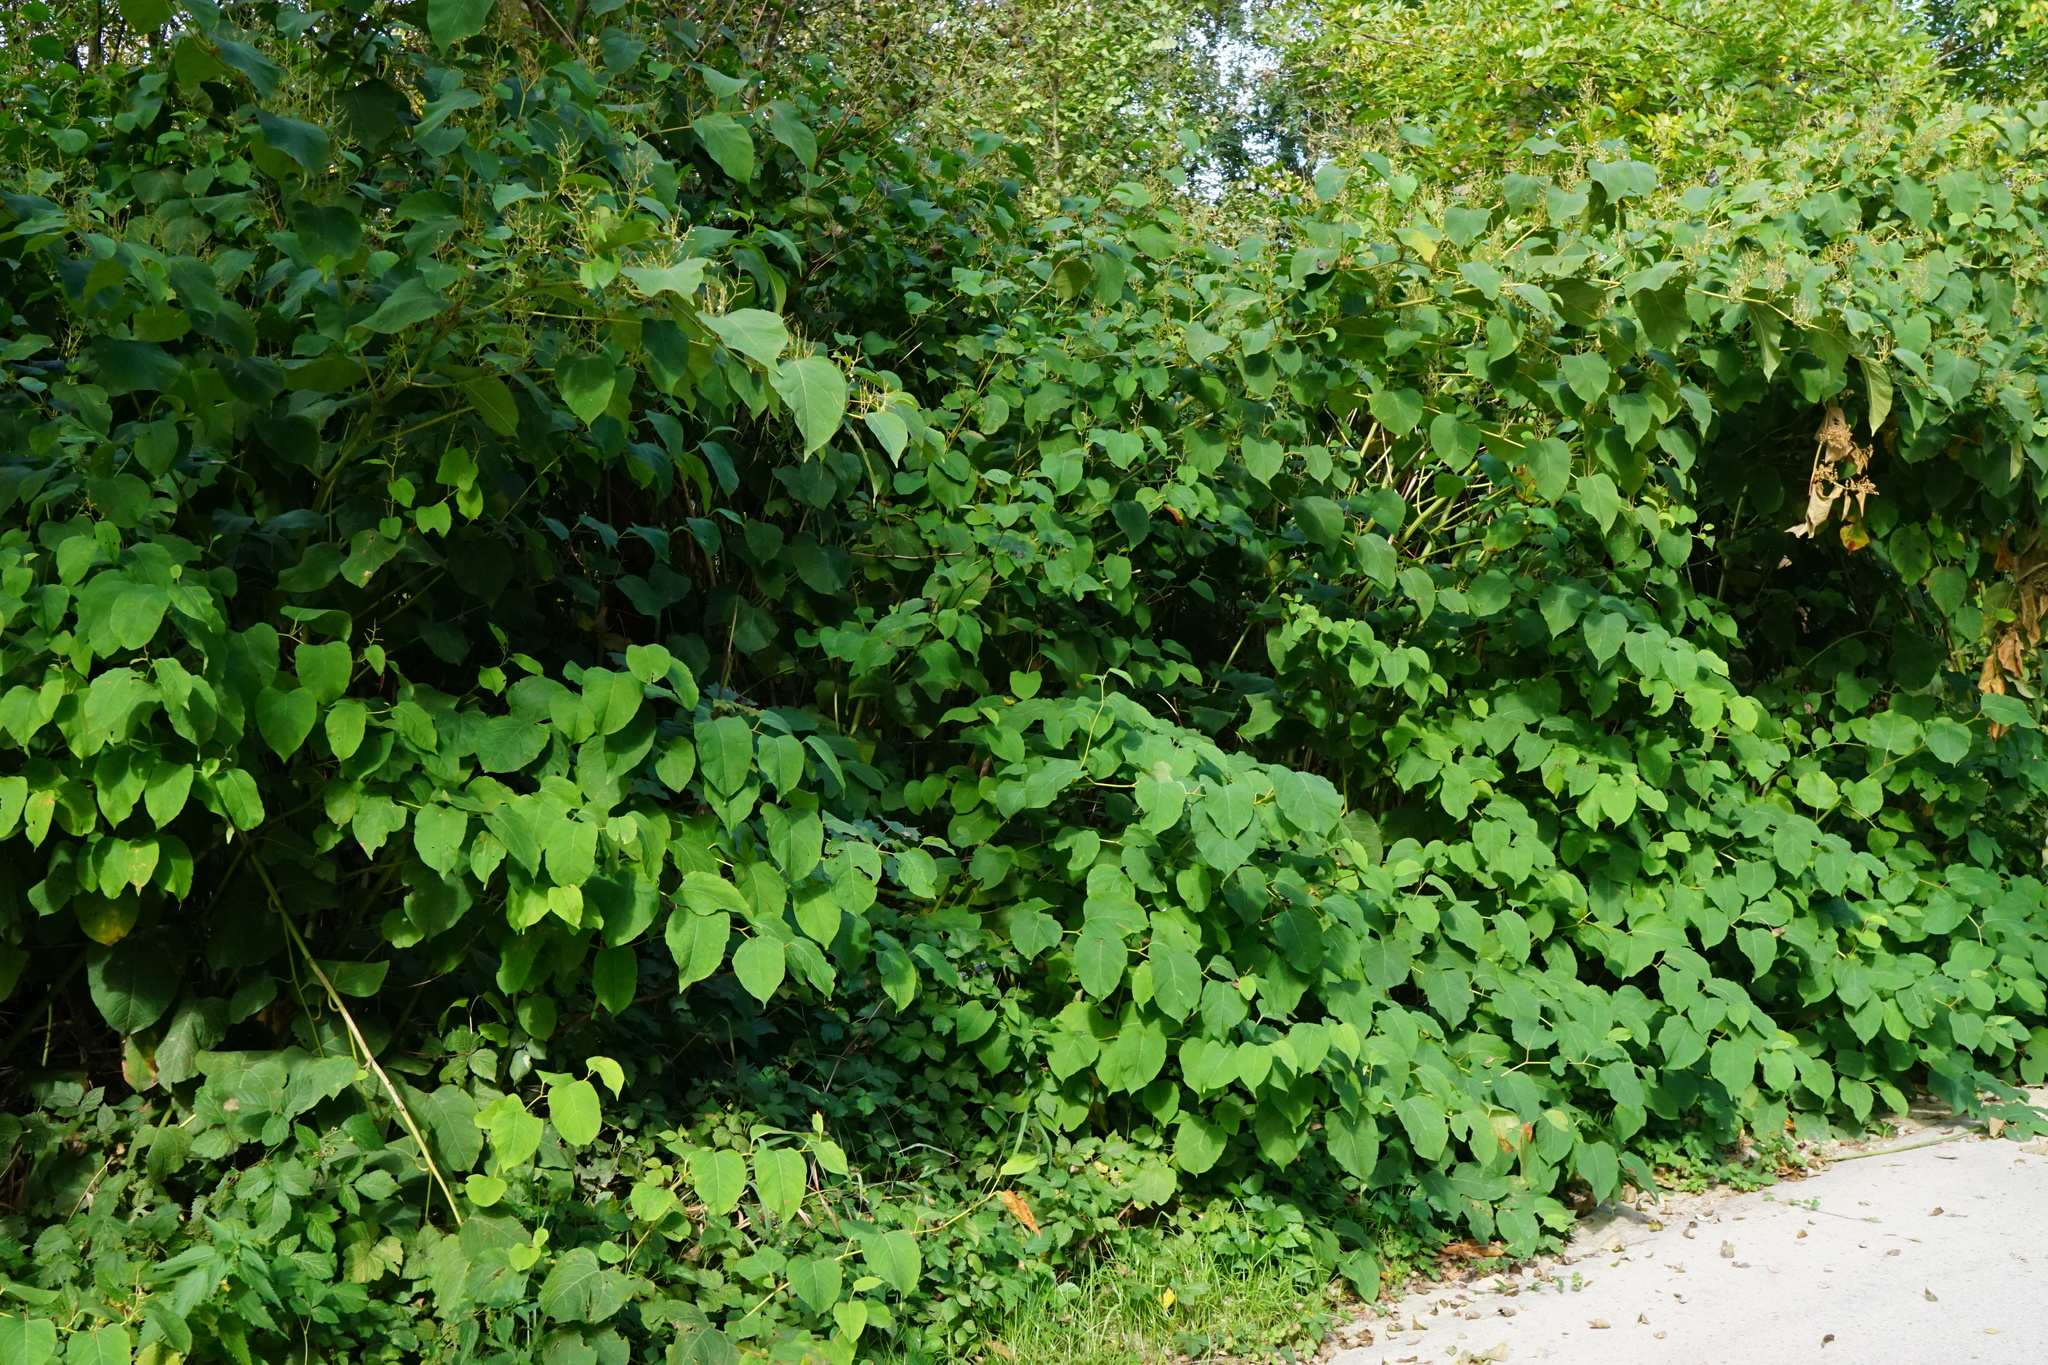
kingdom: Plantae
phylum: Tracheophyta
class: Magnoliopsida
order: Caryophyllales
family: Polygonaceae
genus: Reynoutria
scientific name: Reynoutria bohemica
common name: Bohemian knotweed
